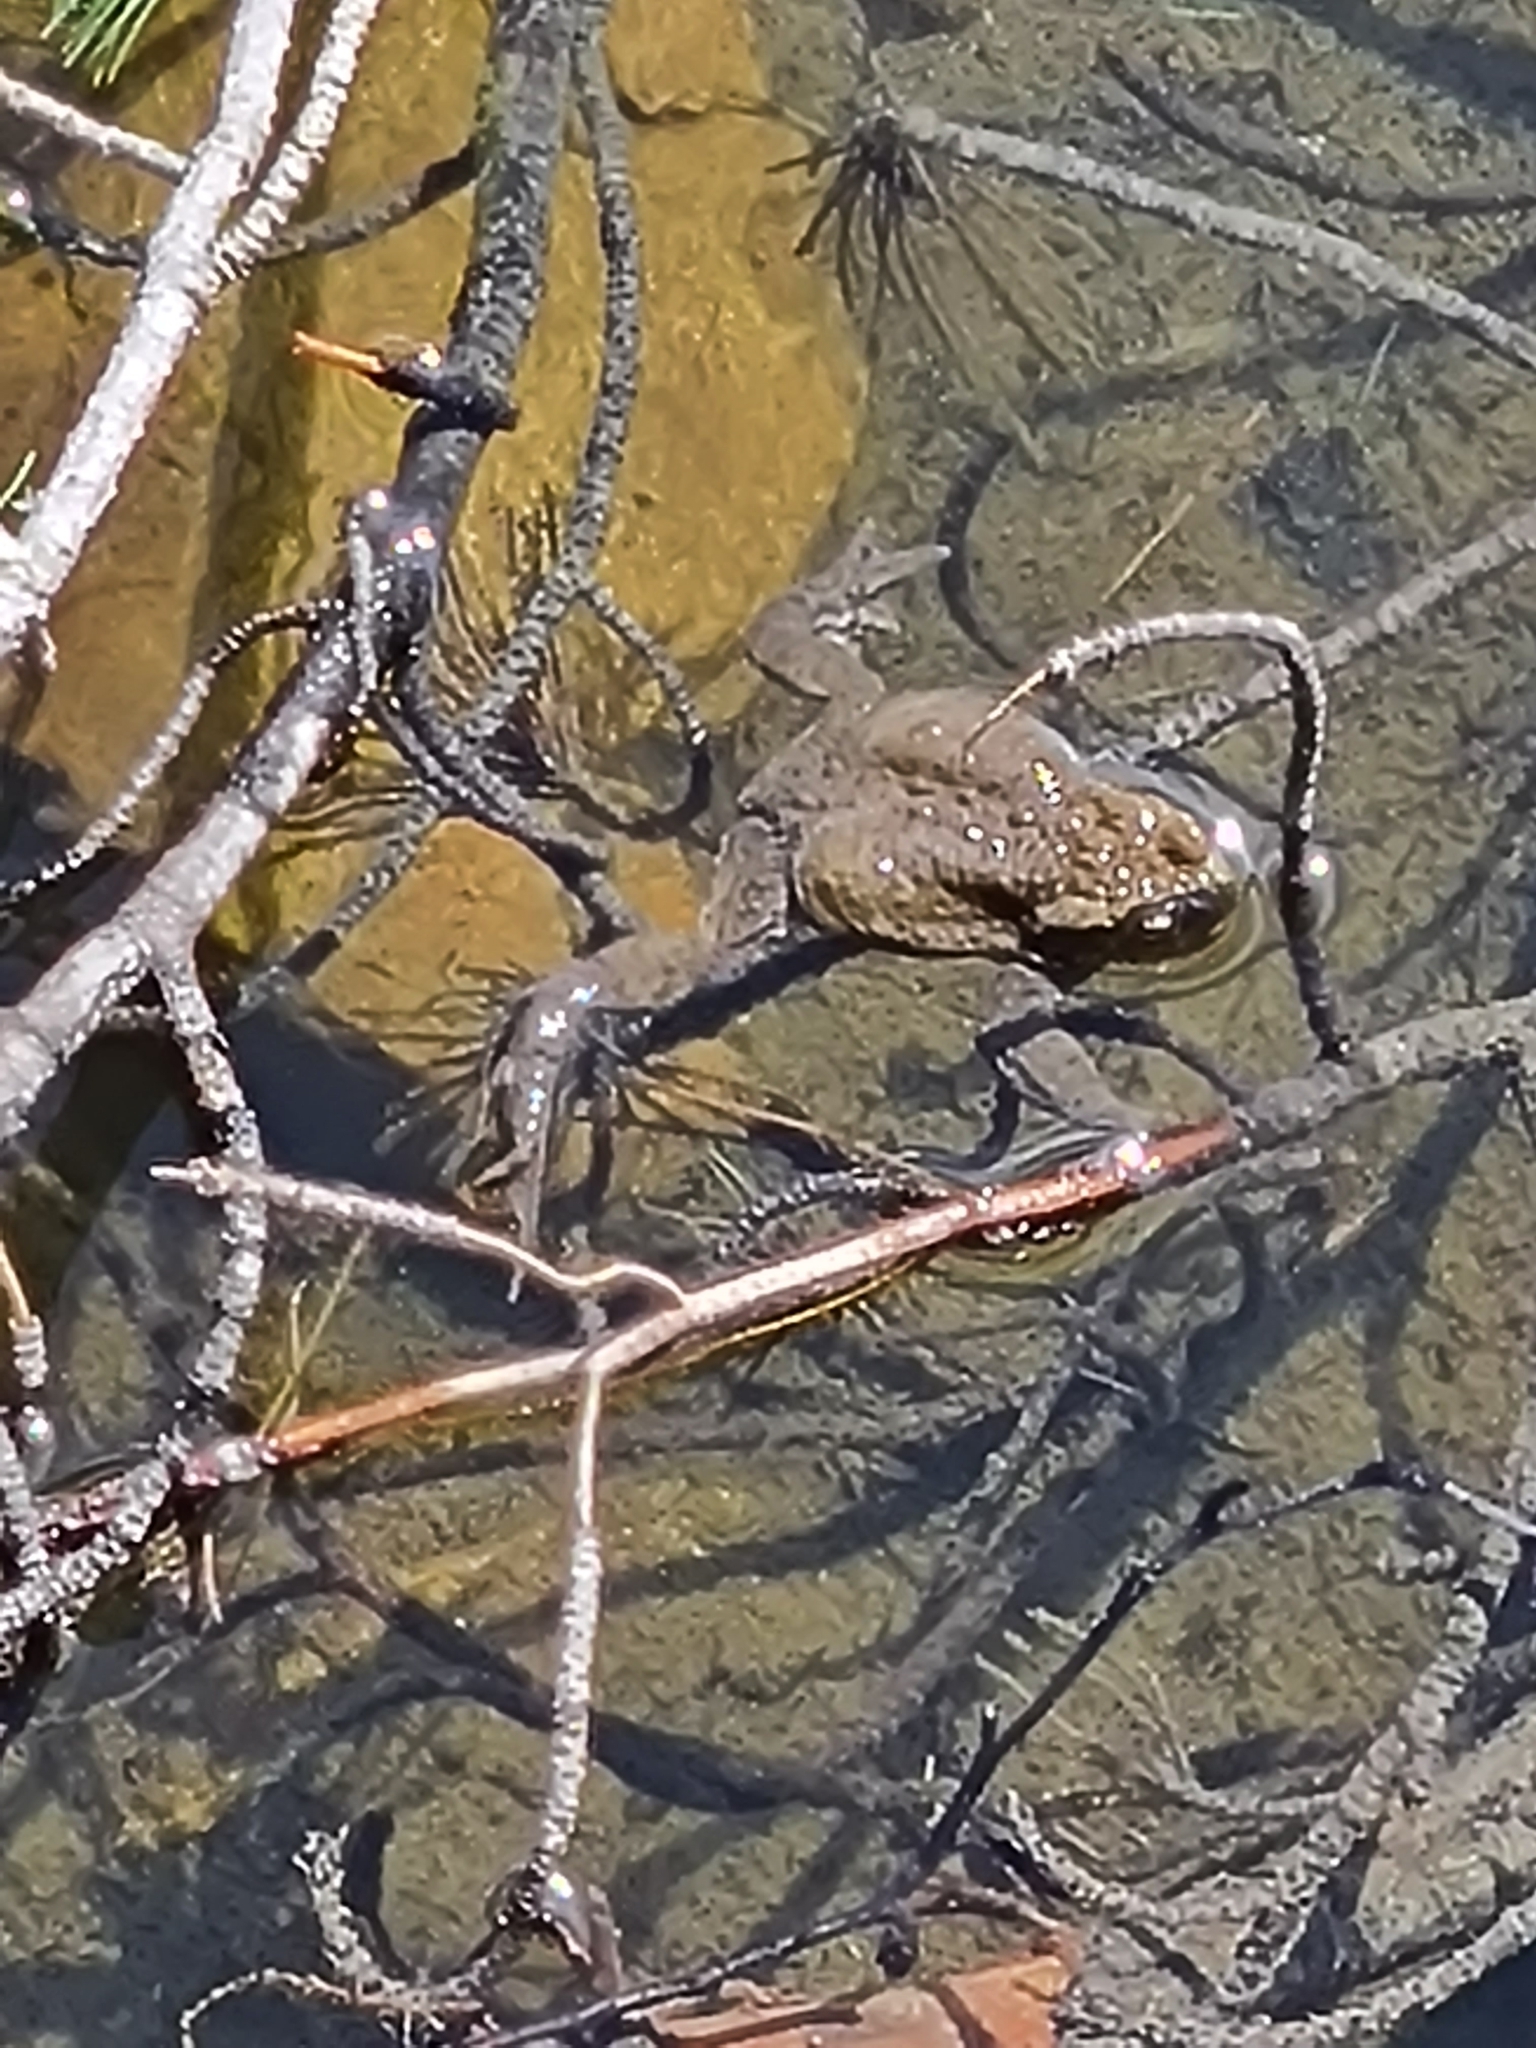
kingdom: Animalia
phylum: Chordata
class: Amphibia
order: Anura
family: Bufonidae
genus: Bufo
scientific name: Bufo bufo
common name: Common toad
